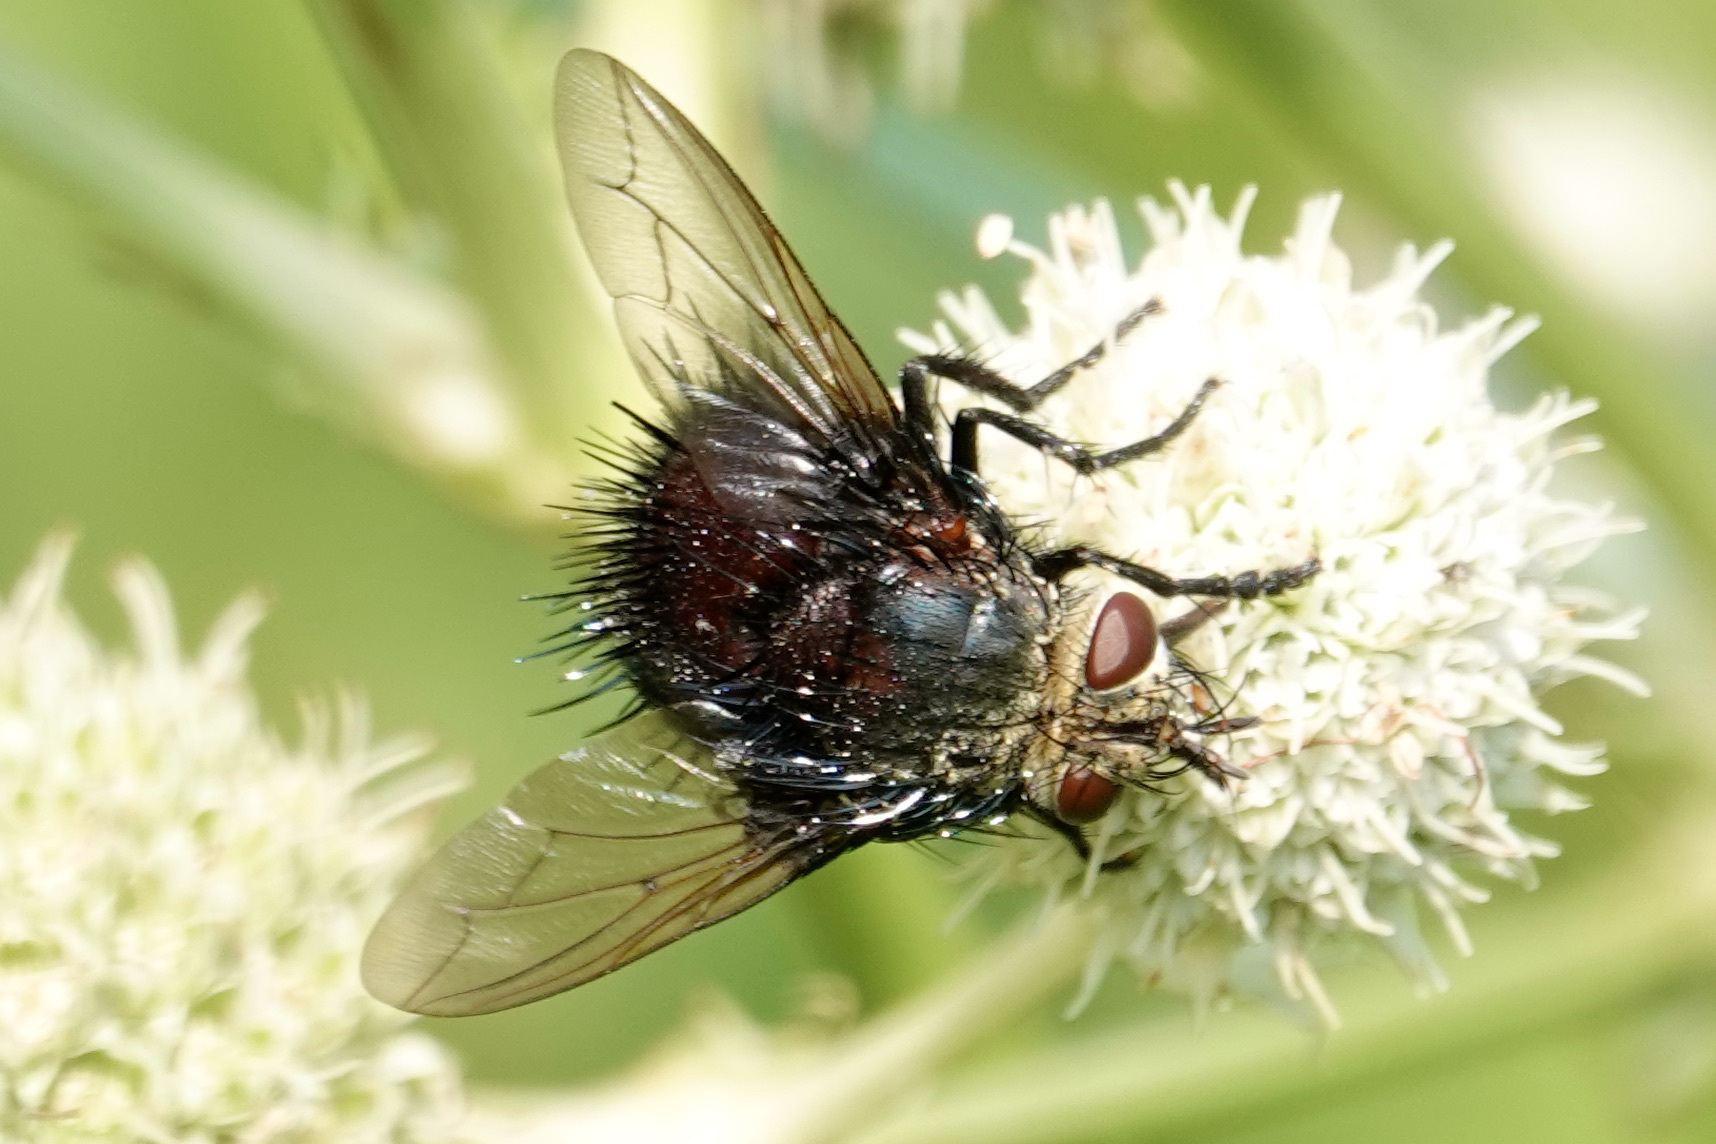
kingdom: Animalia
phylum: Arthropoda
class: Insecta
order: Diptera
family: Tachinidae
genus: Juriniopsis
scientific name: Juriniopsis adusta
